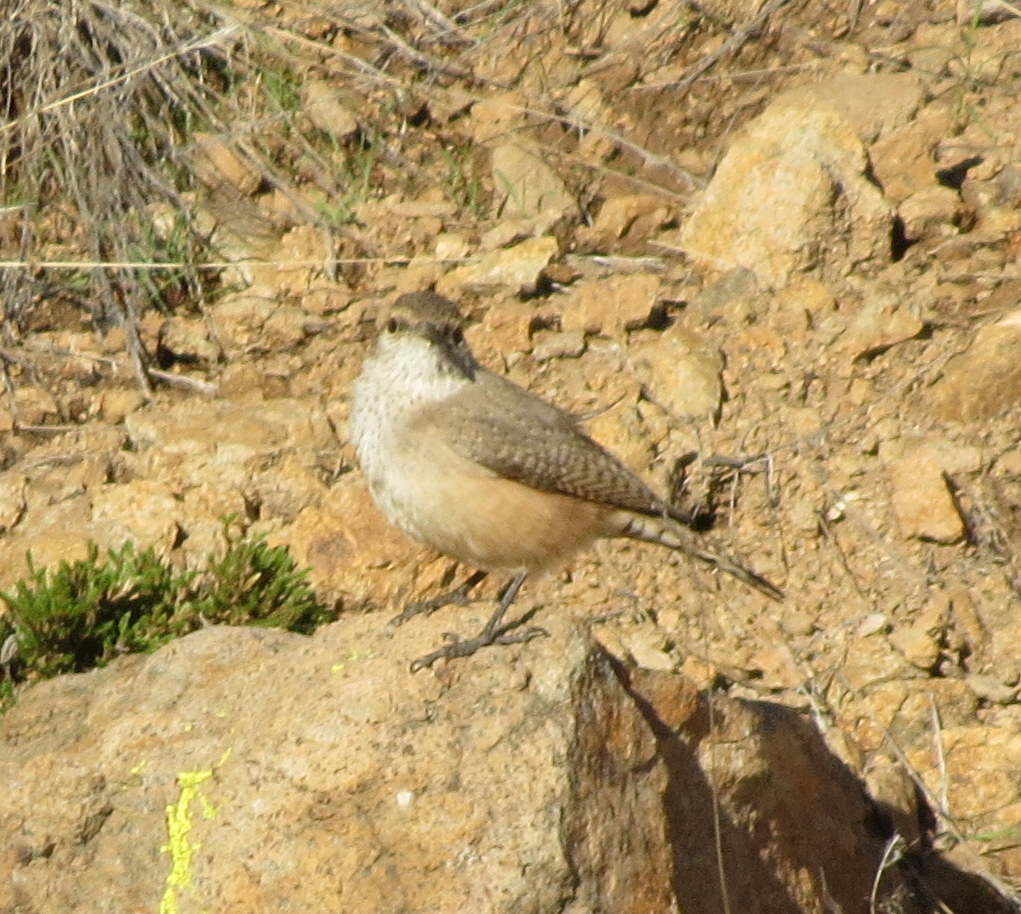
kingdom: Animalia
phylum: Chordata
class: Aves
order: Passeriformes
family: Troglodytidae
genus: Salpinctes
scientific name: Salpinctes obsoletus
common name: Rock wren
